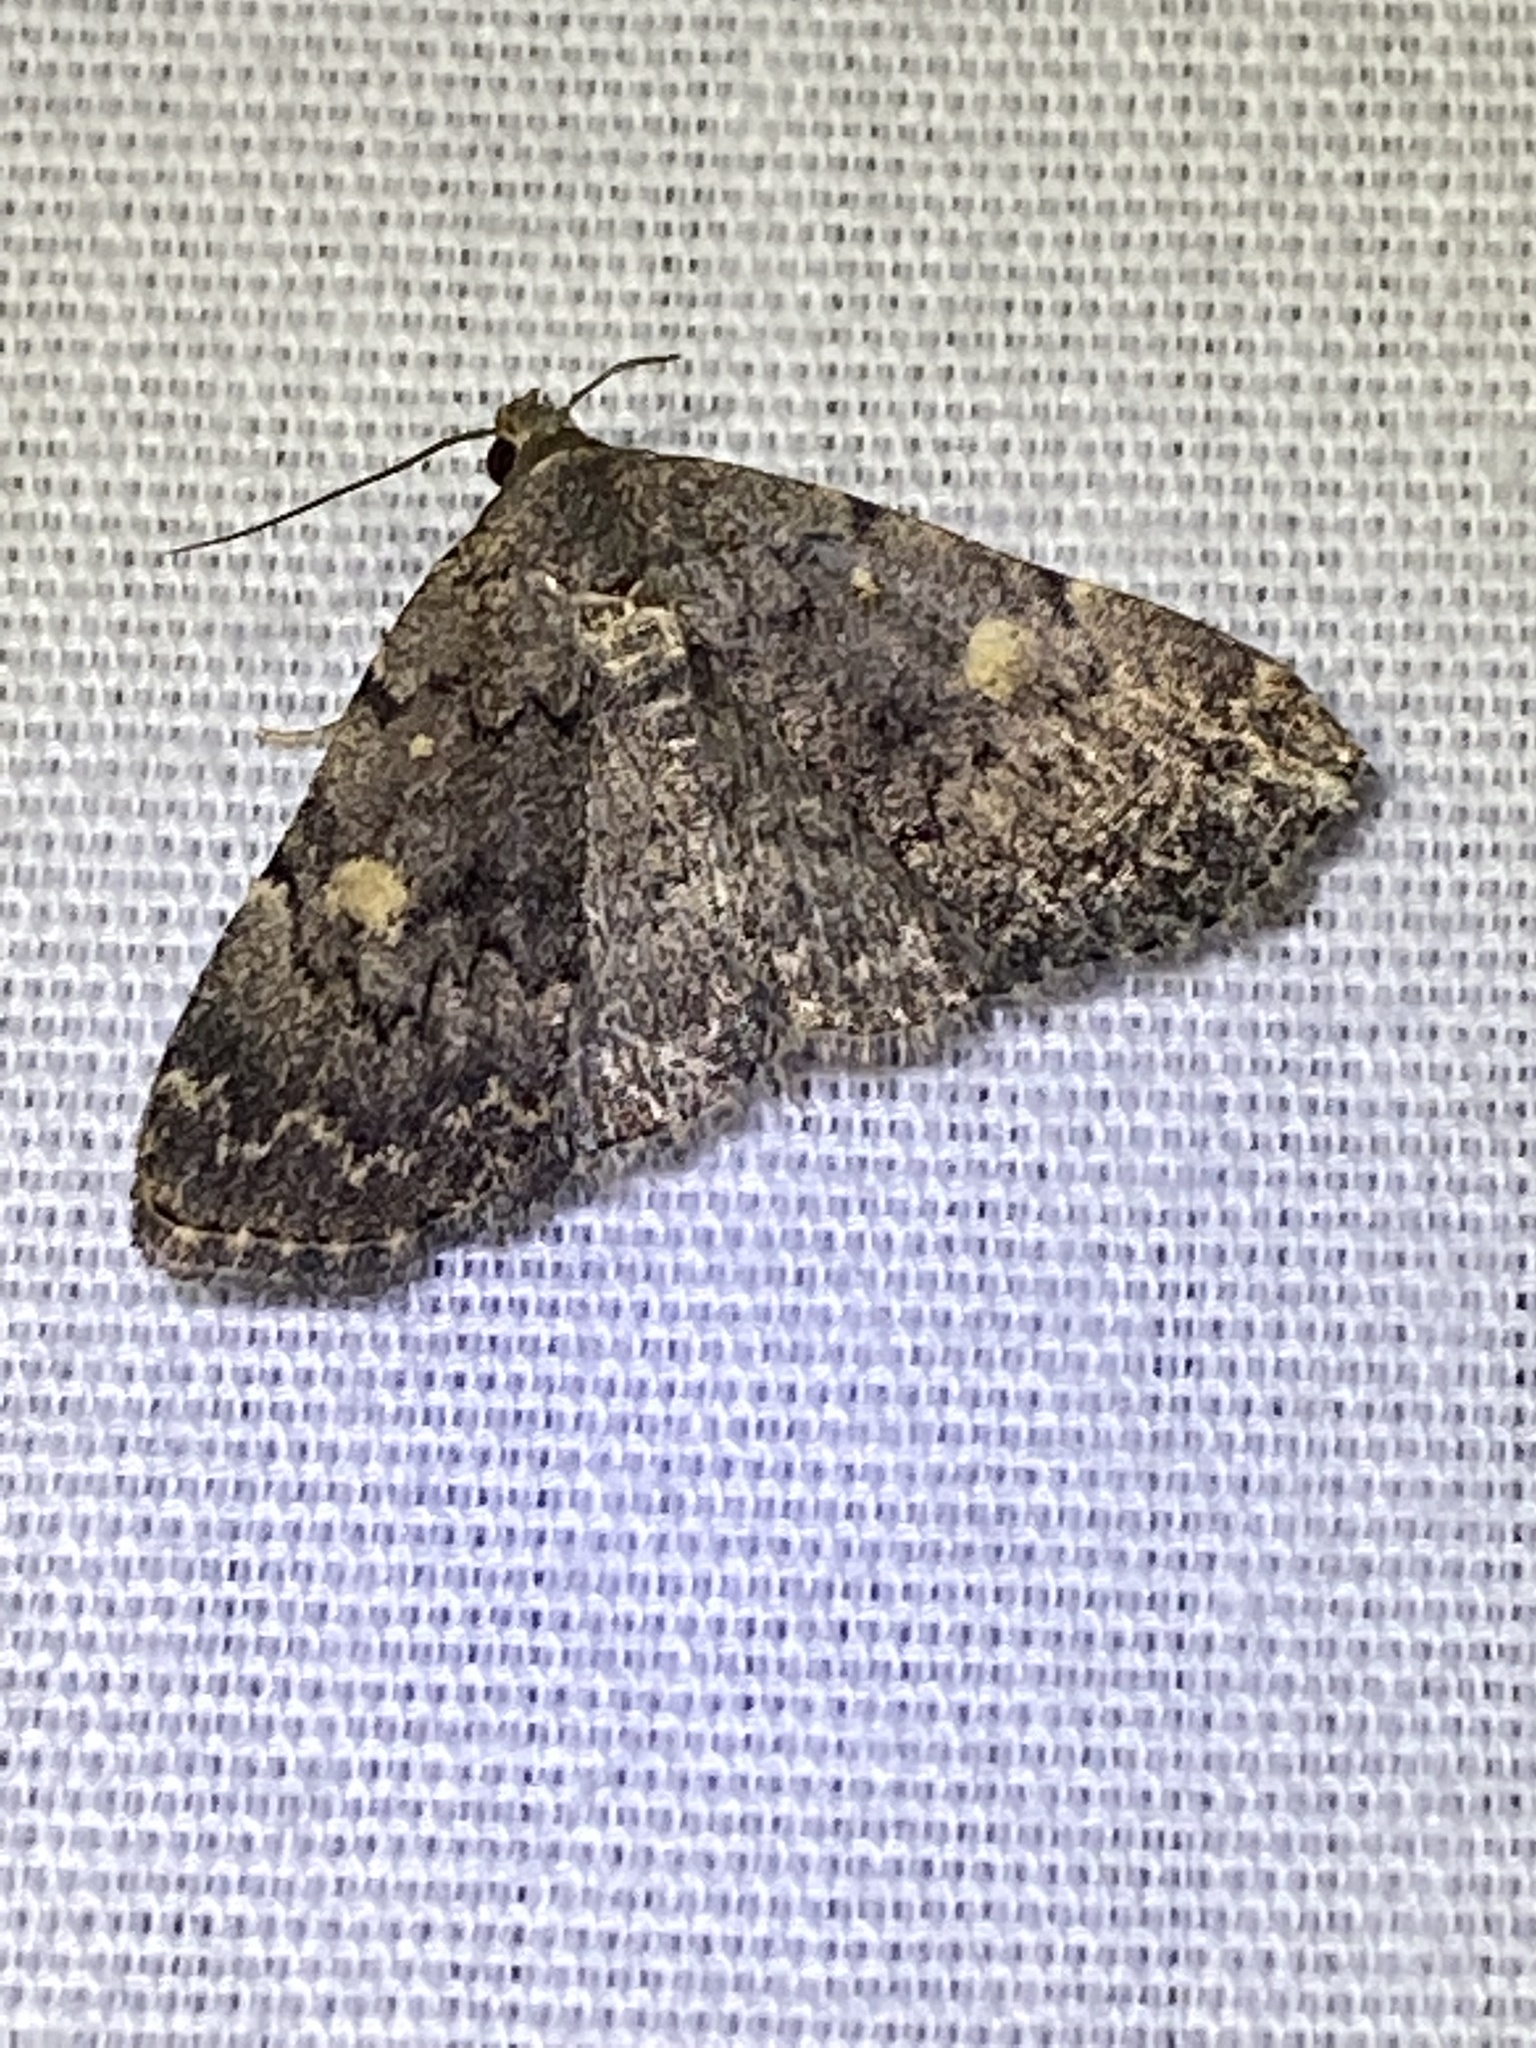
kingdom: Animalia
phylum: Arthropoda
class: Insecta
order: Lepidoptera
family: Erebidae
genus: Idia
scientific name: Idia aemula
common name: Common idia moth
